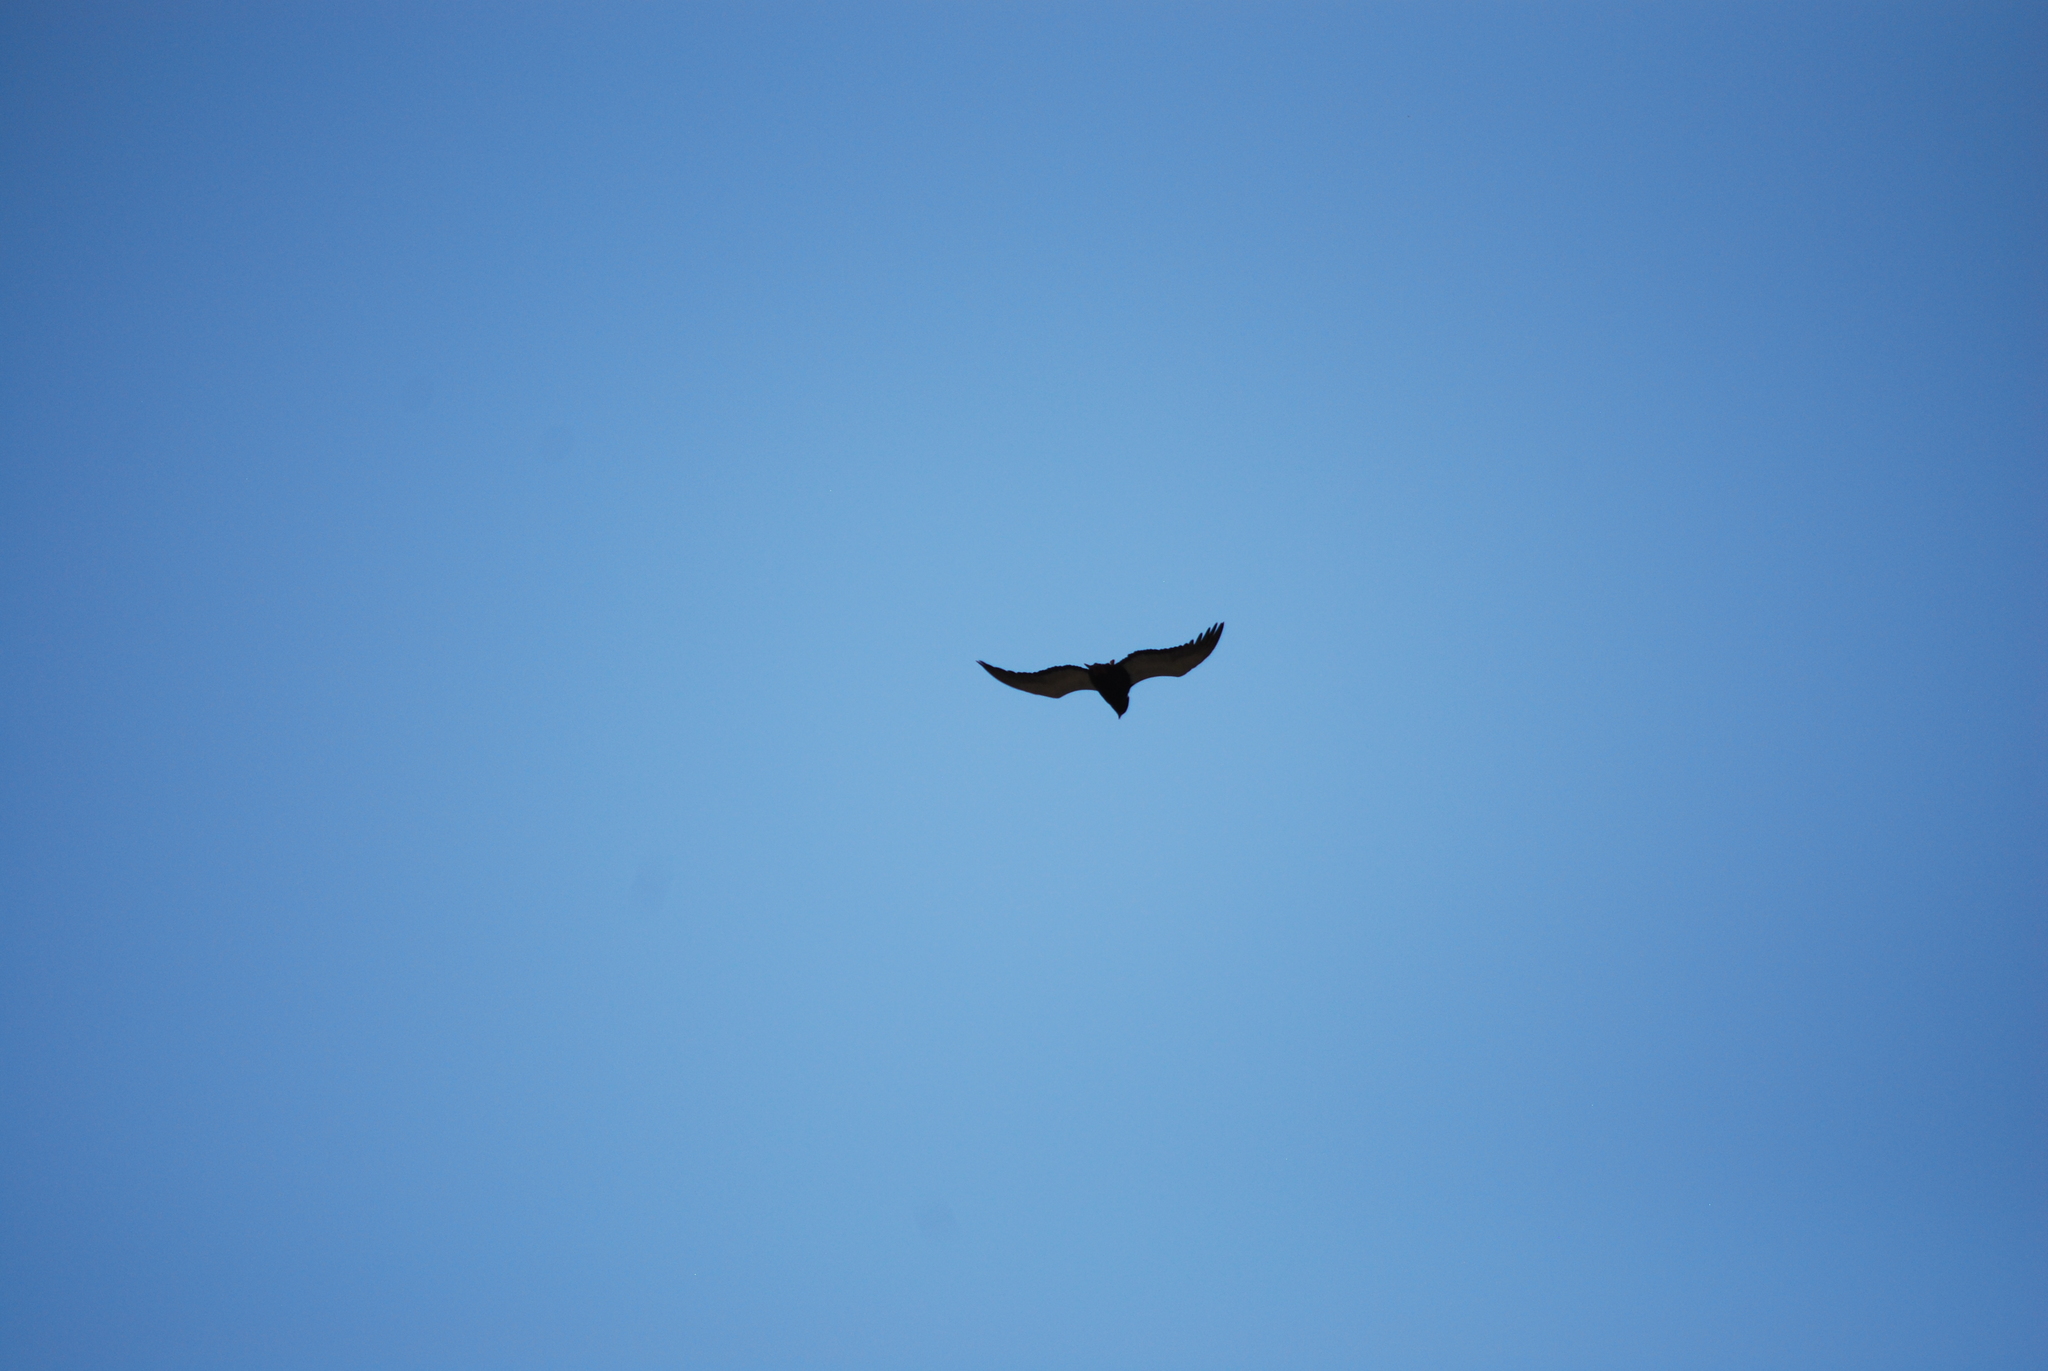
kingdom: Animalia
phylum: Chordata
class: Aves
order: Accipitriformes
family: Accipitridae
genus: Terathopius
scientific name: Terathopius ecaudatus
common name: Bateleur
